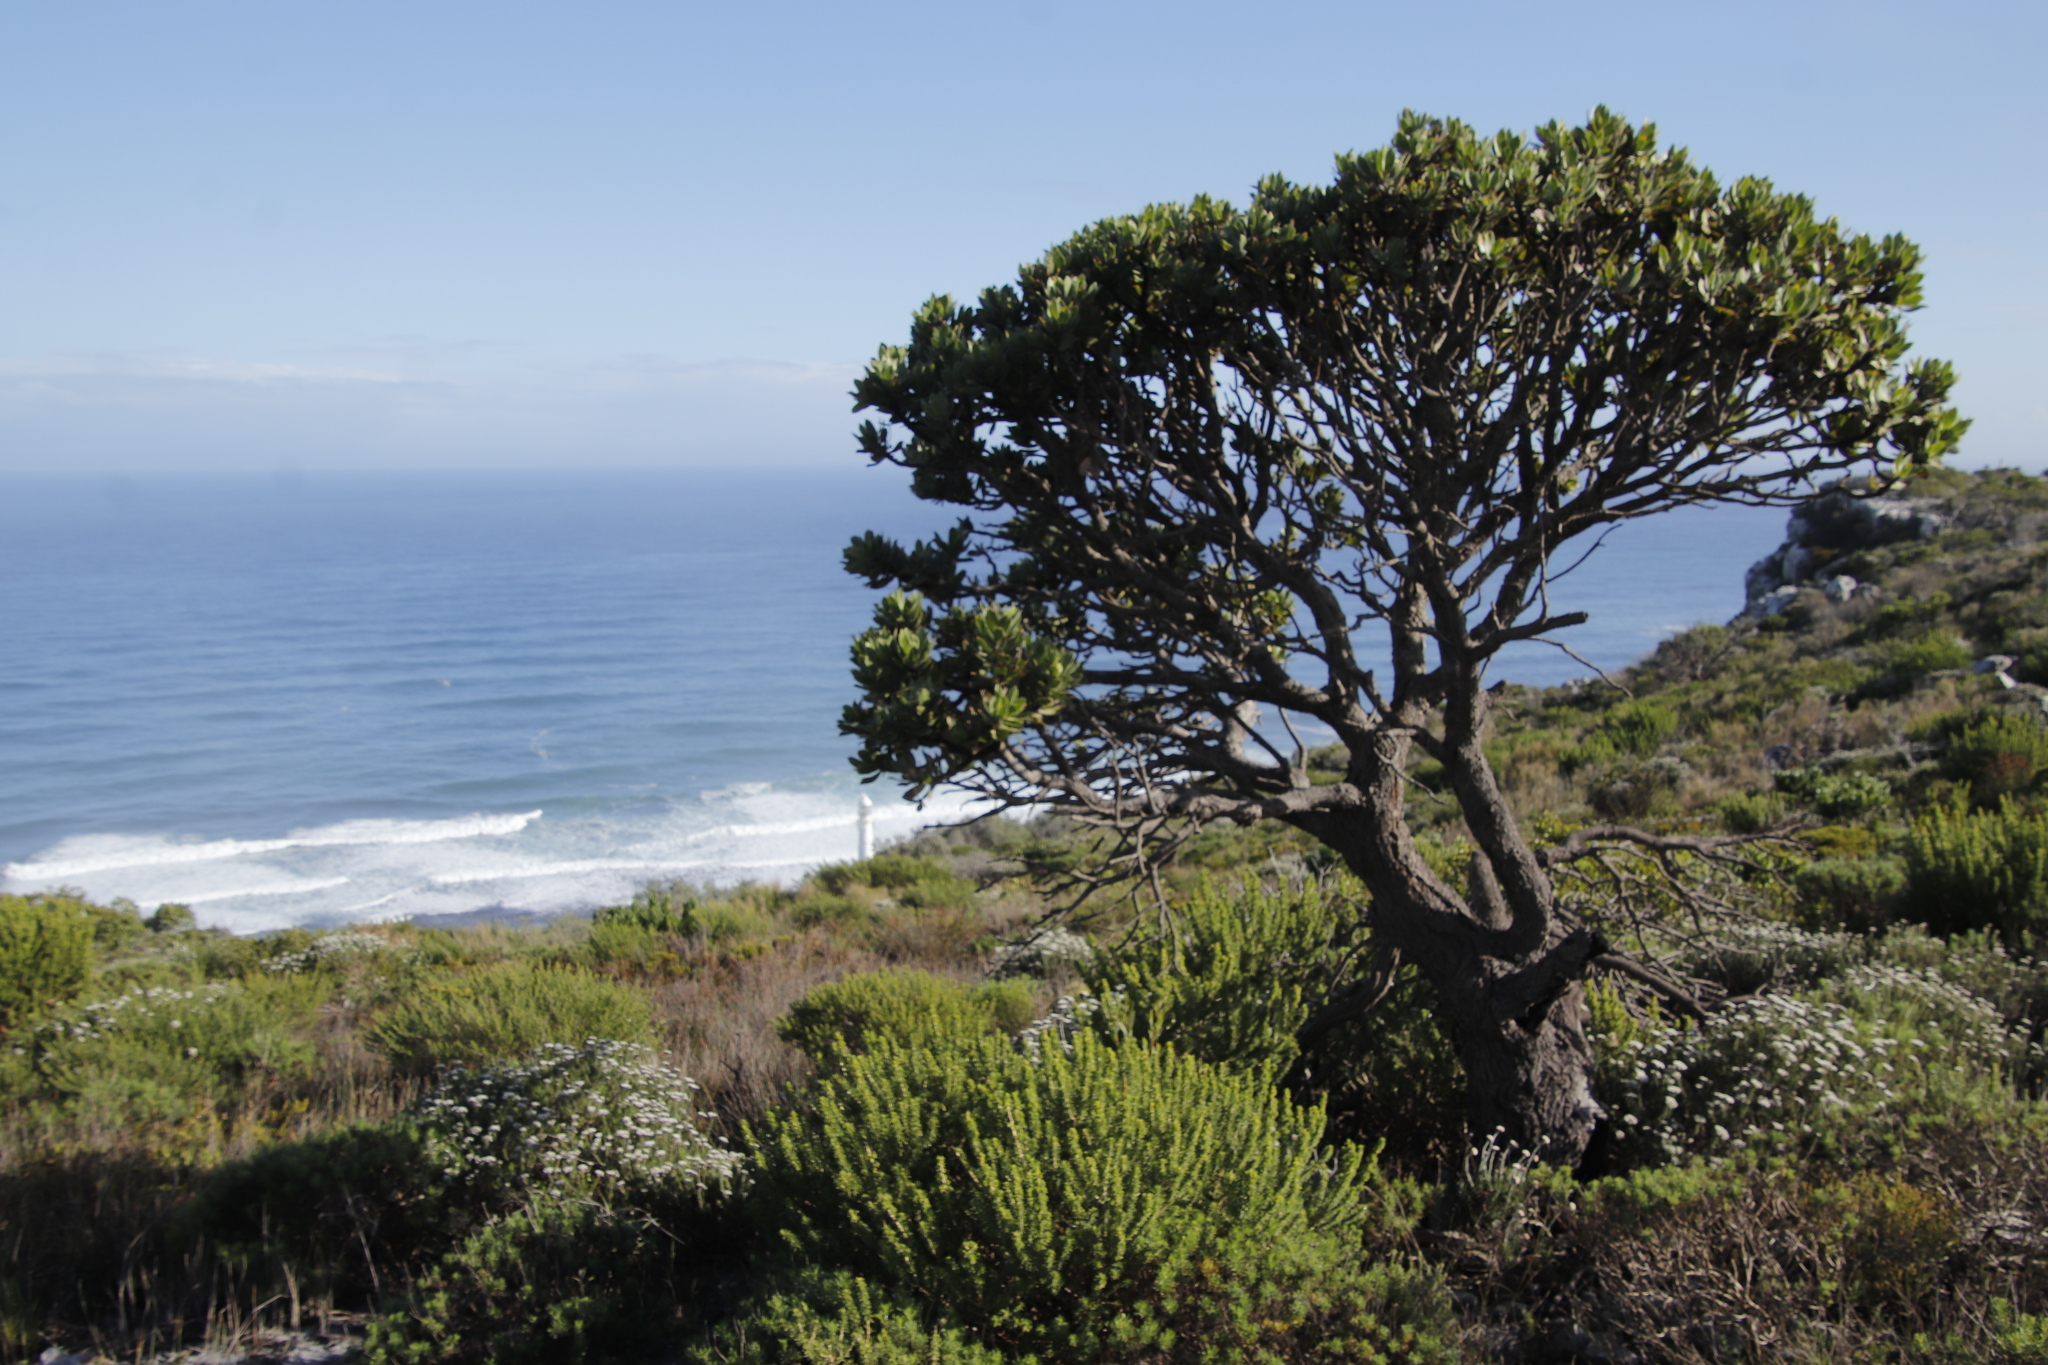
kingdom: Plantae
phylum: Tracheophyta
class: Magnoliopsida
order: Proteales
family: Proteaceae
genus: Leucospermum
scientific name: Leucospermum conocarpodendron
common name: Tree pincushion
